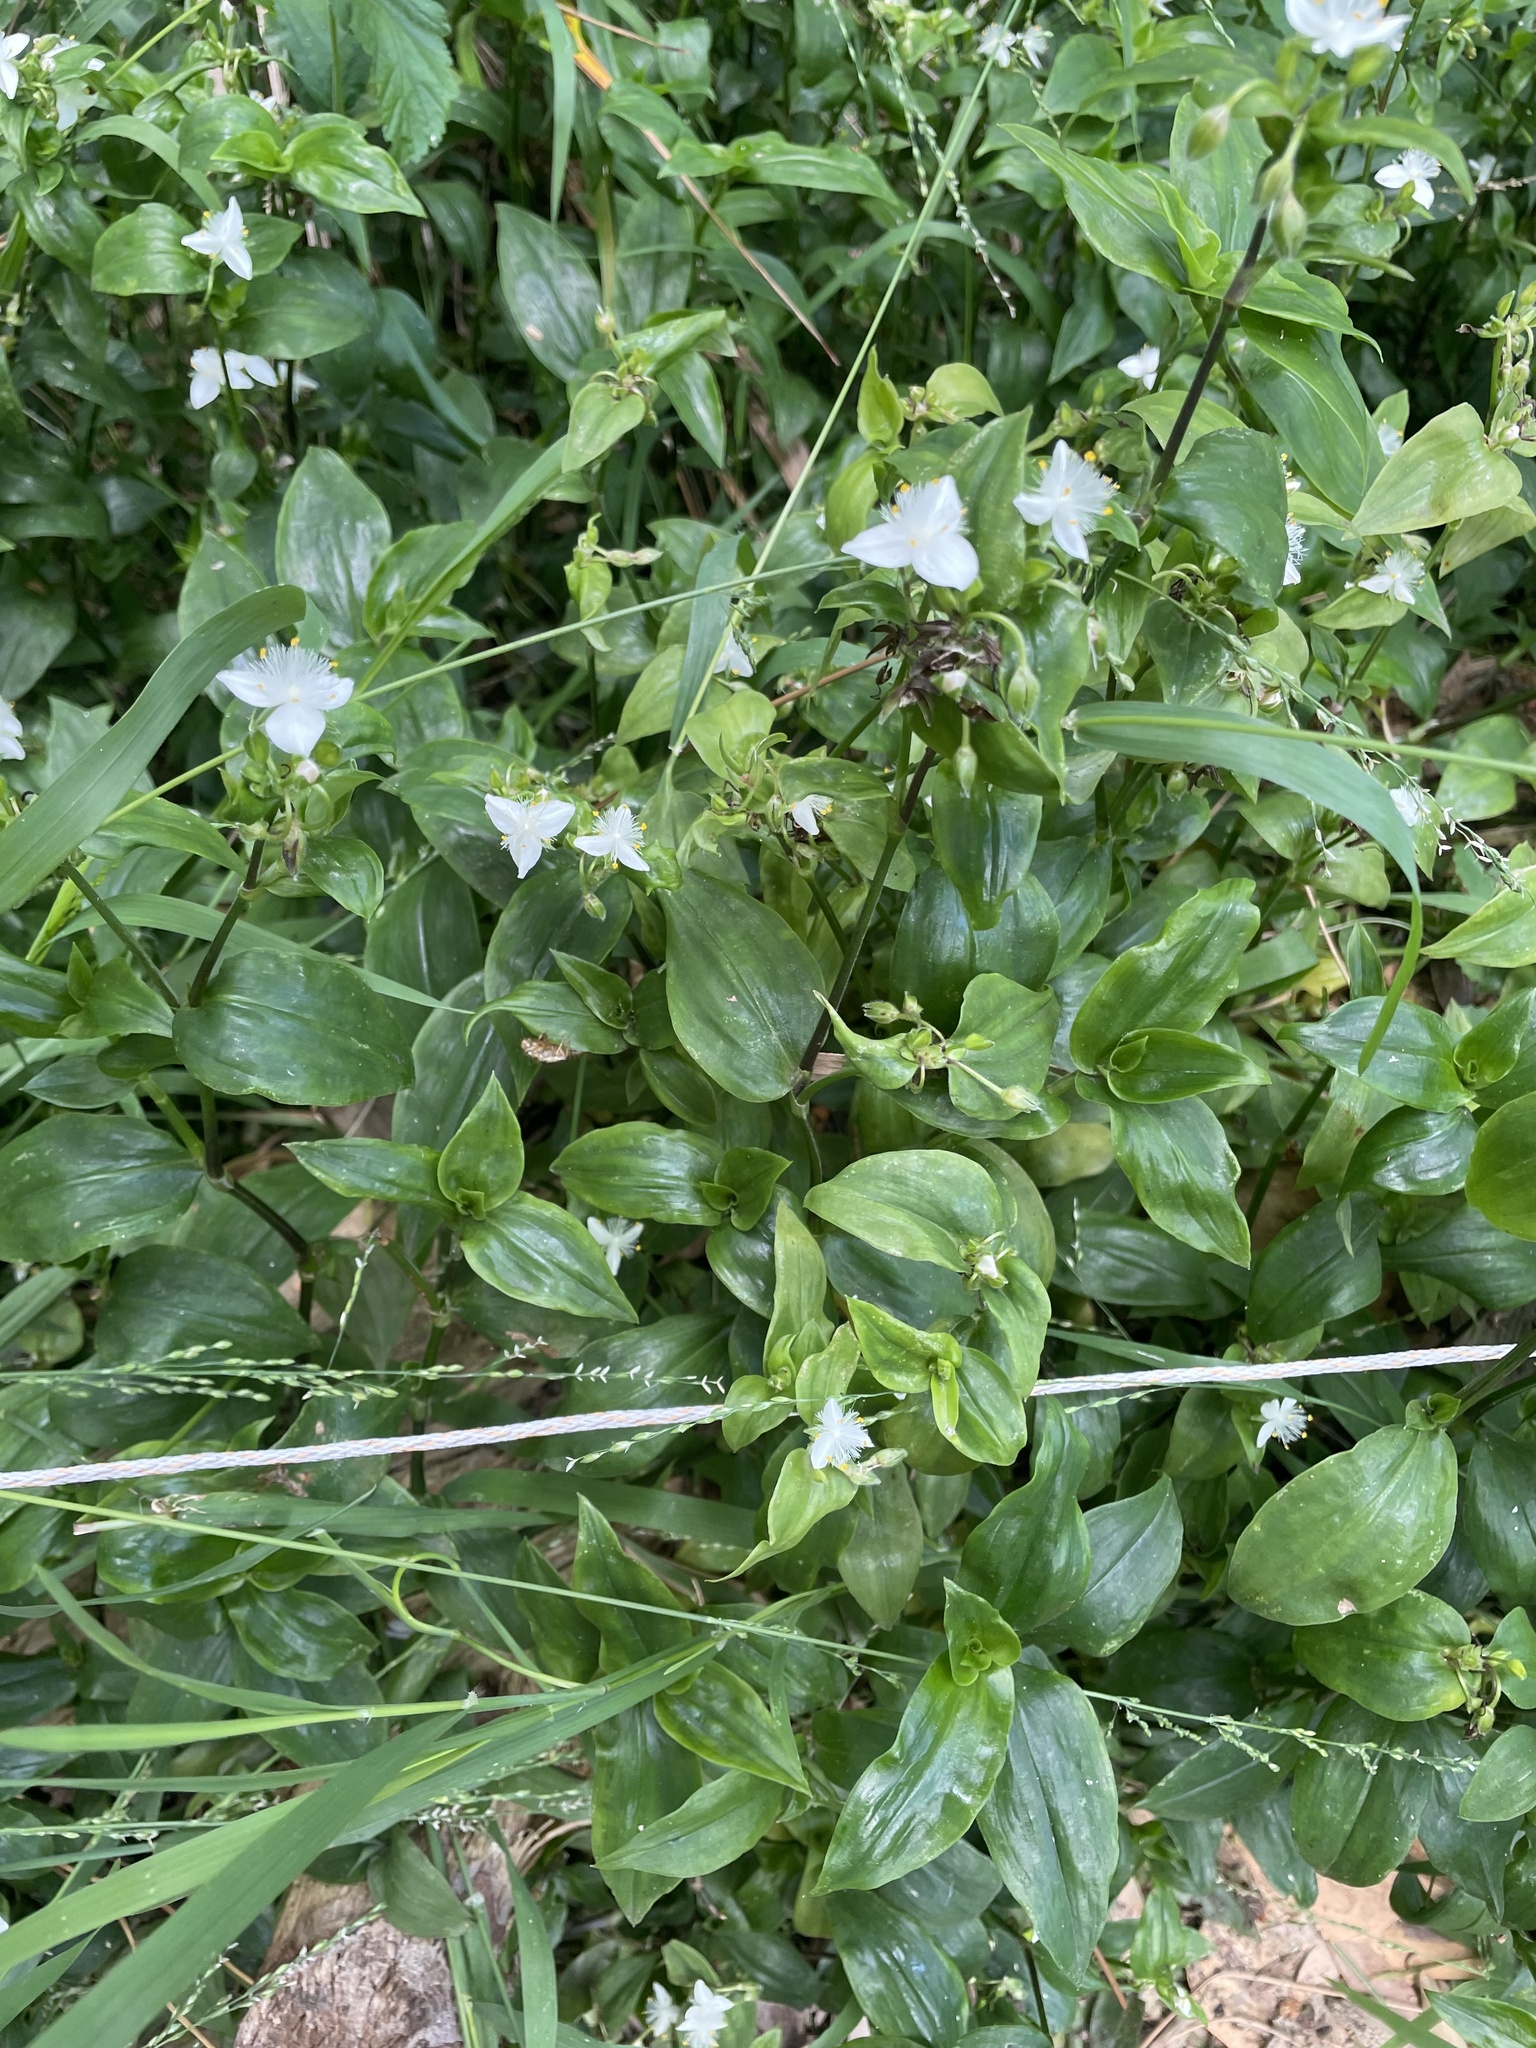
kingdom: Plantae
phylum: Tracheophyta
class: Liliopsida
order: Commelinales
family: Commelinaceae
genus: Tradescantia
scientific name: Tradescantia fluminensis
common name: Wandering-jew
